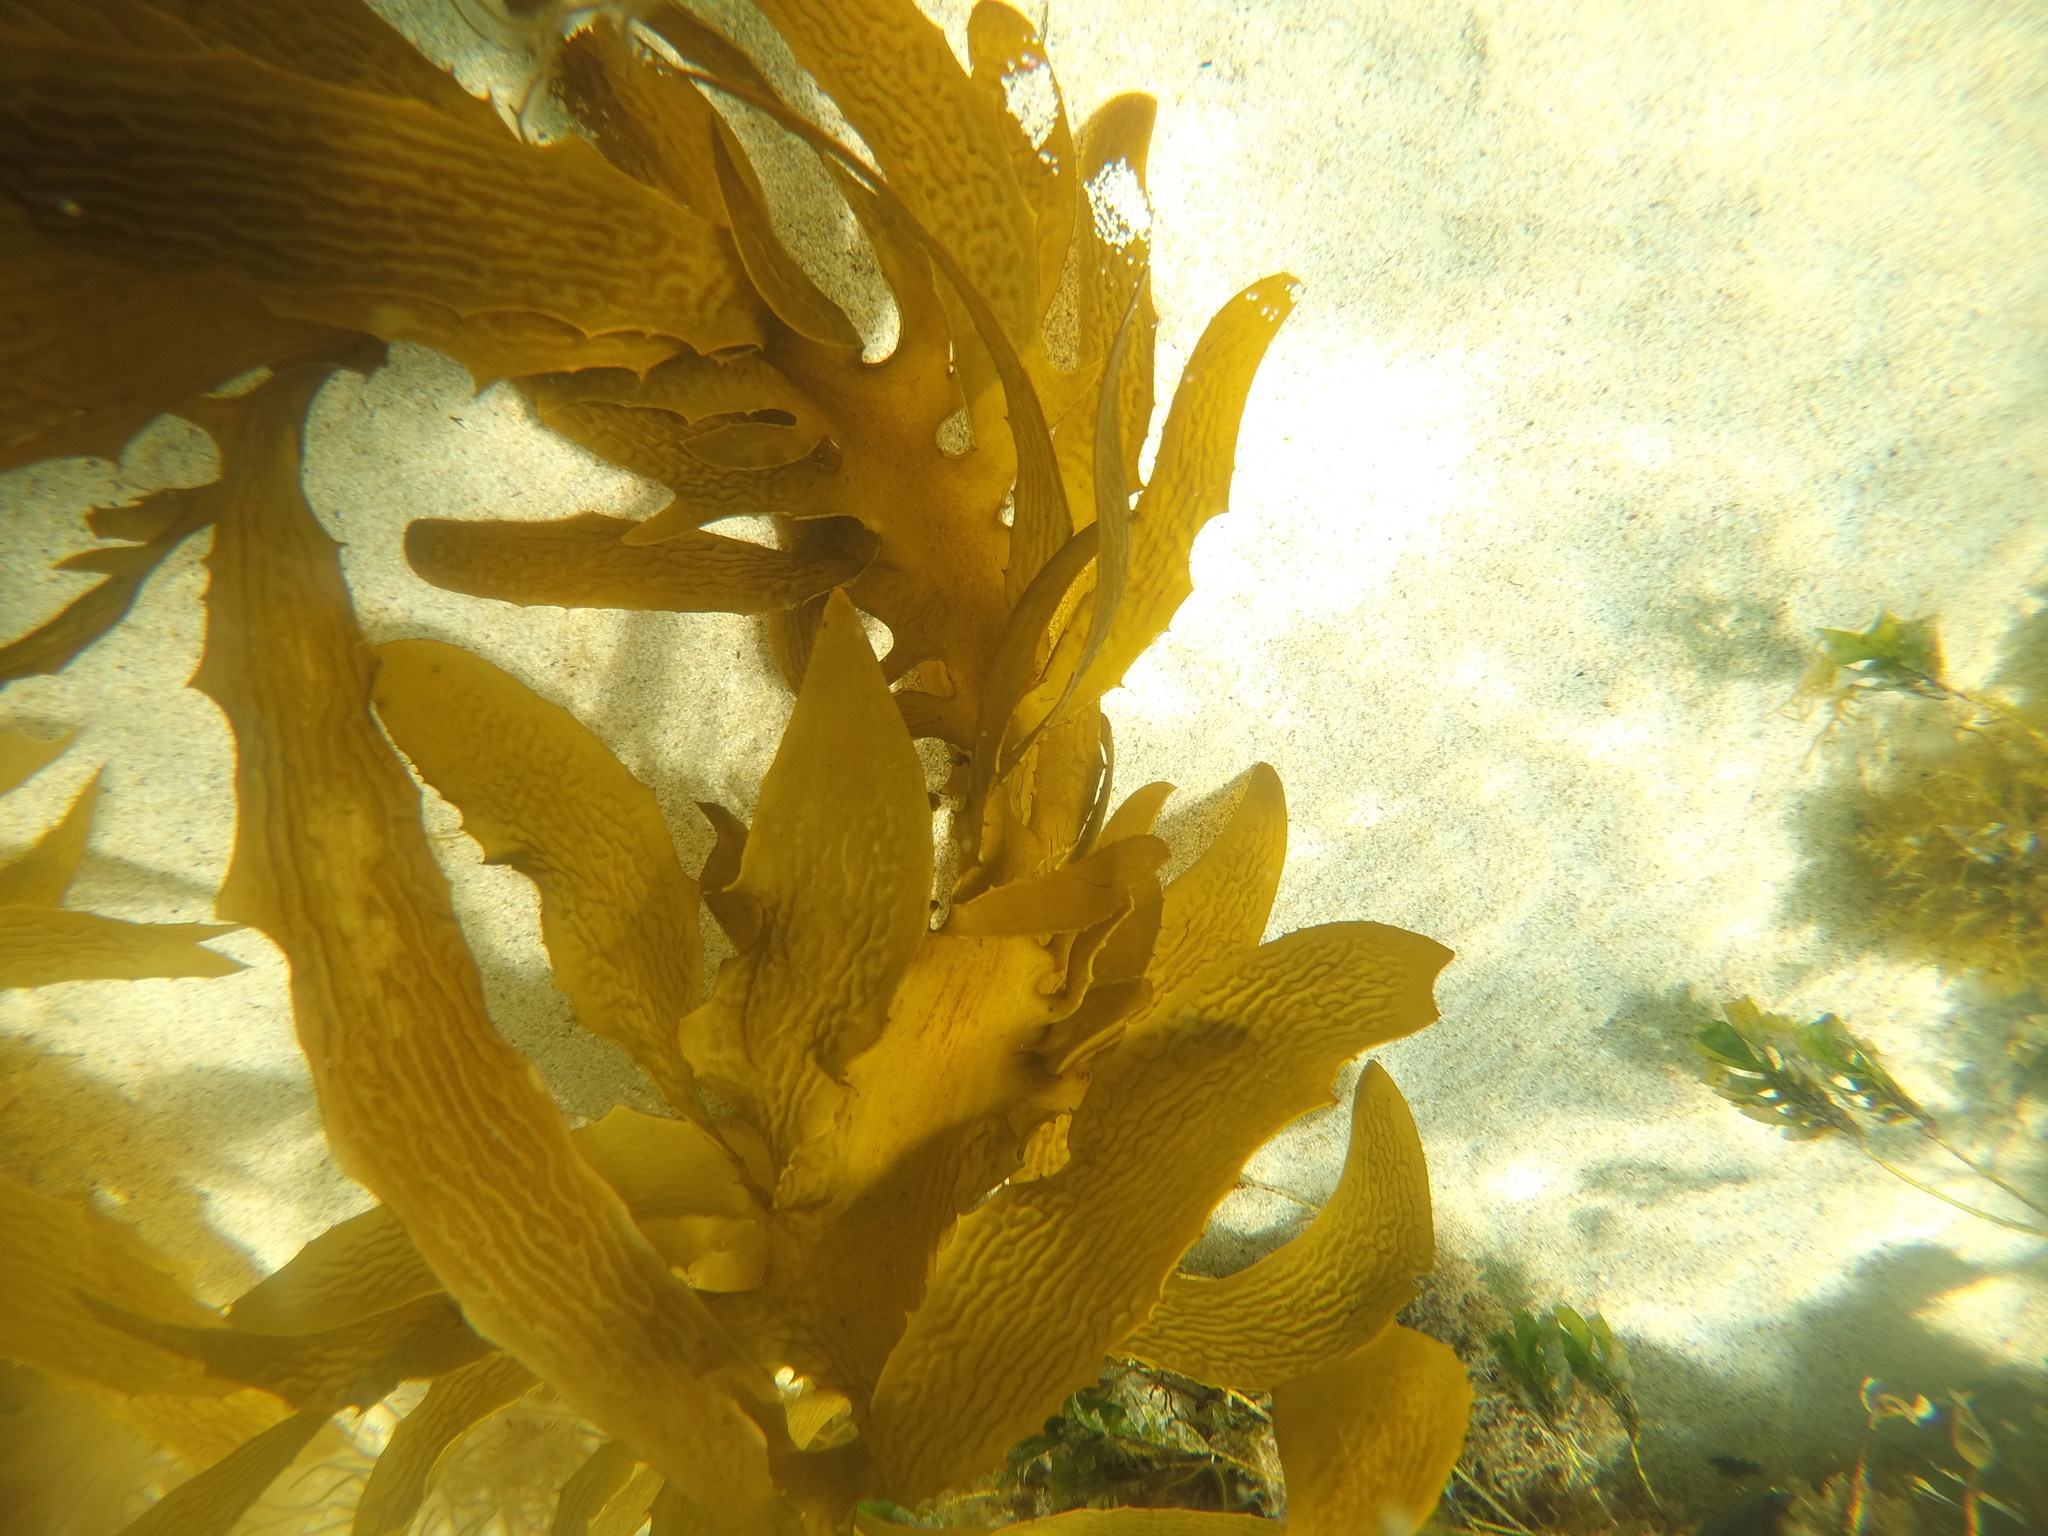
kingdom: Chromista
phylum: Ochrophyta
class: Phaeophyceae
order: Laminariales
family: Lessoniaceae
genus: Ecklonia
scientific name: Ecklonia radiata
